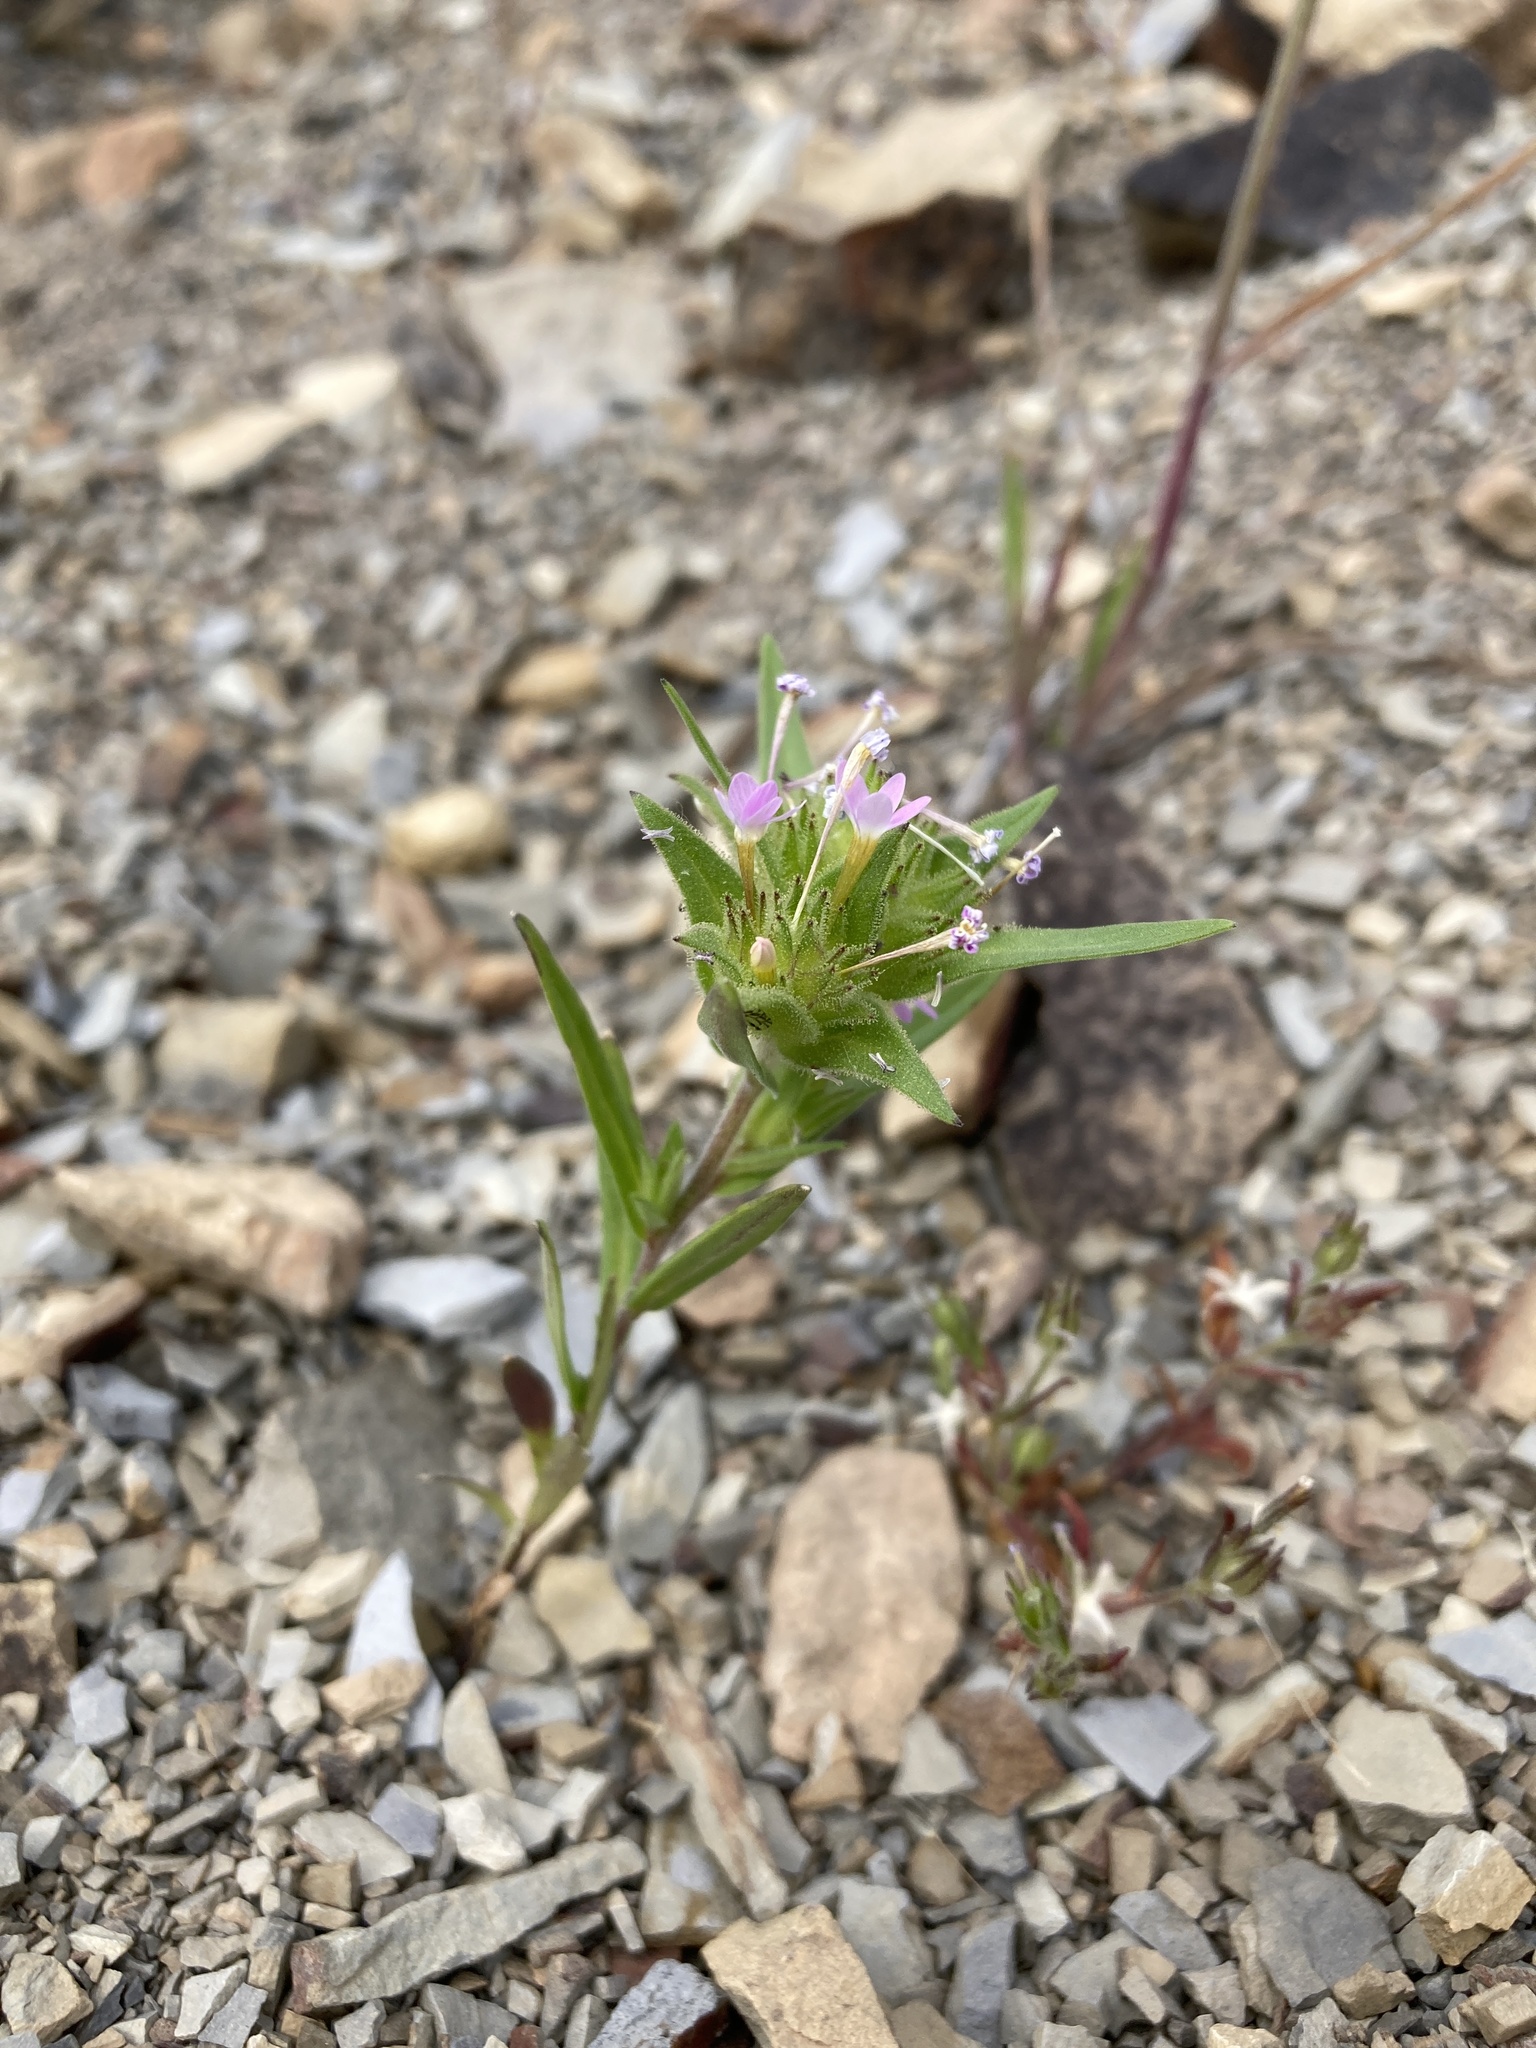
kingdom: Plantae
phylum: Tracheophyta
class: Magnoliopsida
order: Ericales
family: Polemoniaceae
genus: Collomia
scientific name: Collomia linearis
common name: Tiny trumpet
